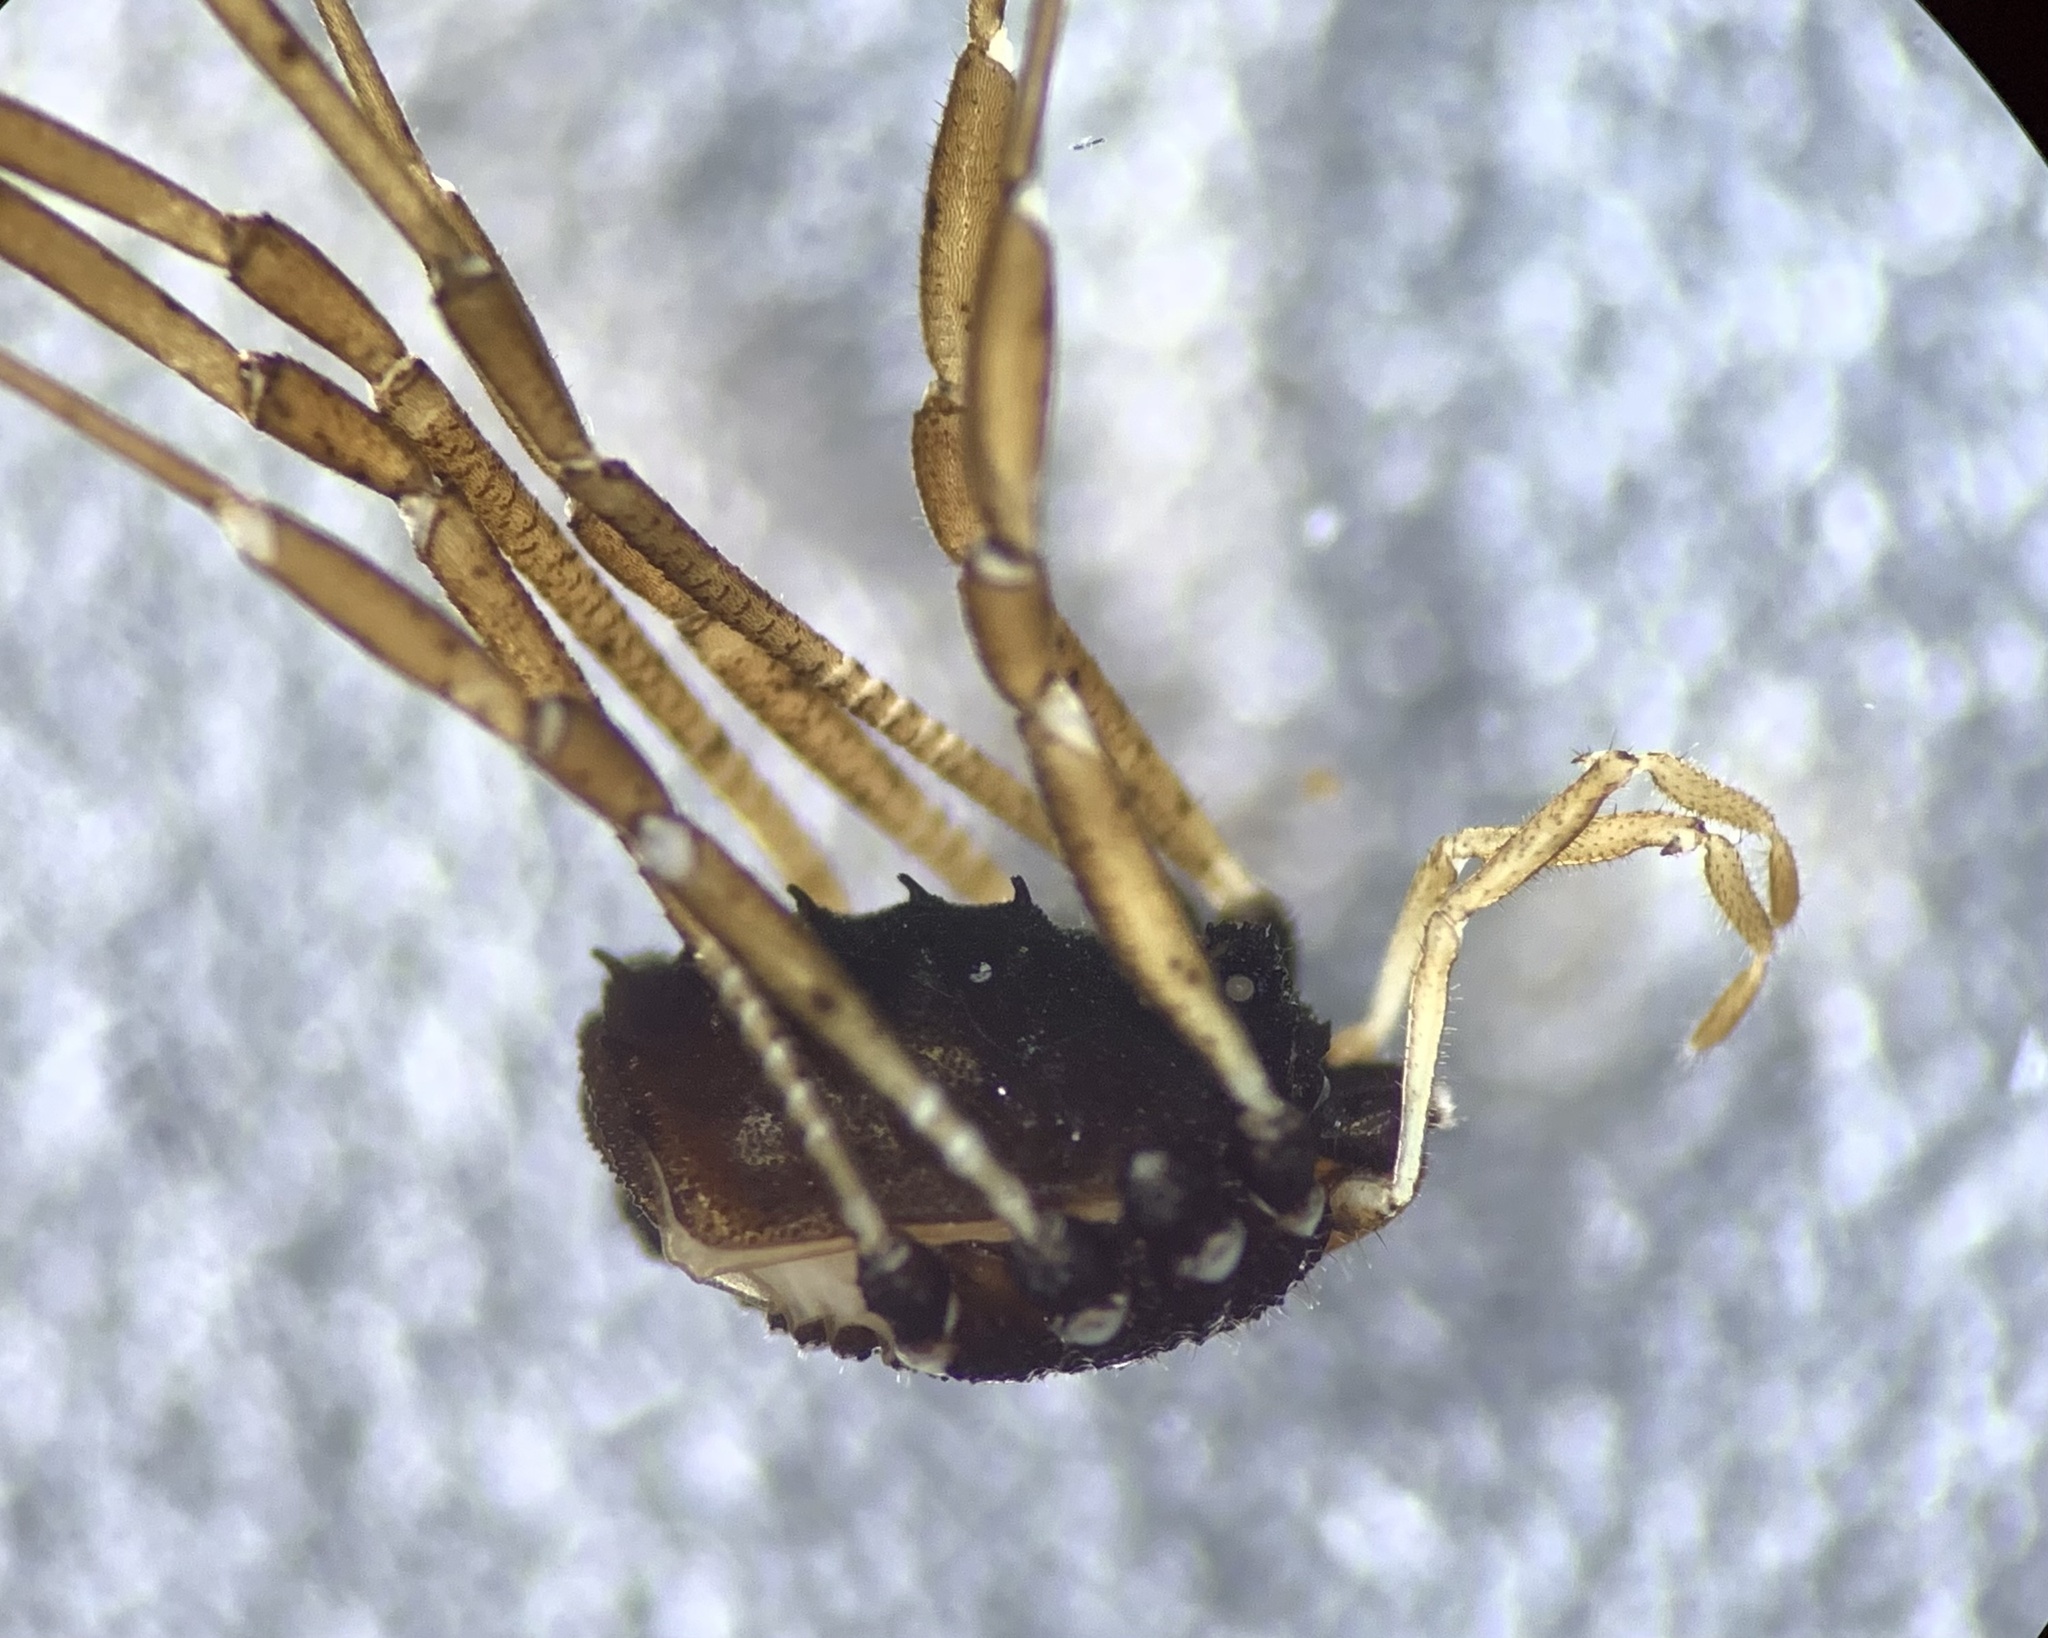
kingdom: Animalia
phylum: Arthropoda
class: Arachnida
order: Opiliones
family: Nemastomatidae
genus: Histricostoma
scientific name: Histricostoma dentipalpe
